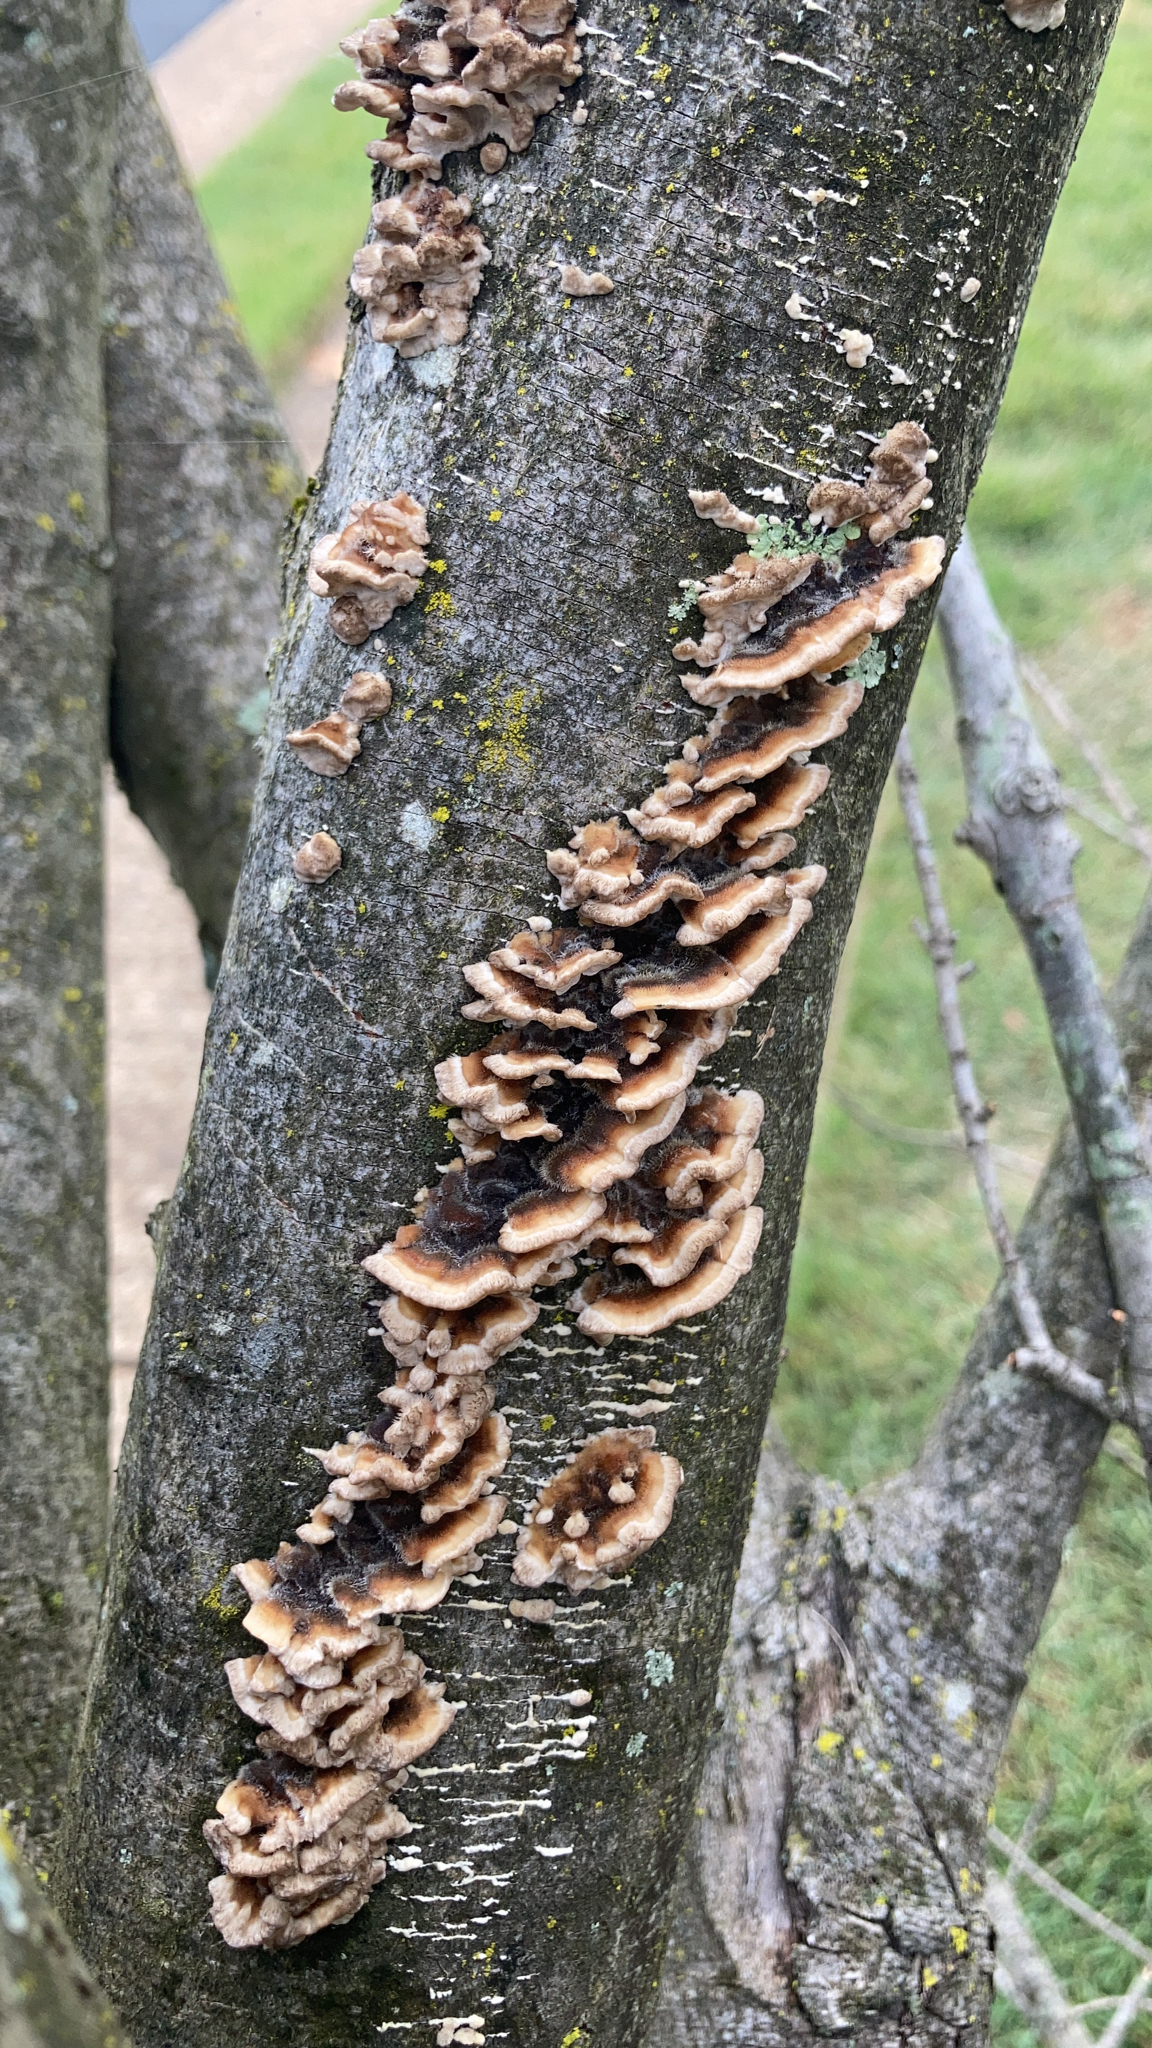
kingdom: Fungi
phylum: Basidiomycota
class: Agaricomycetes
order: Amylocorticiales
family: Amylocorticiaceae
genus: Plicaturopsis
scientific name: Plicaturopsis crispa
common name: Crimped gill
